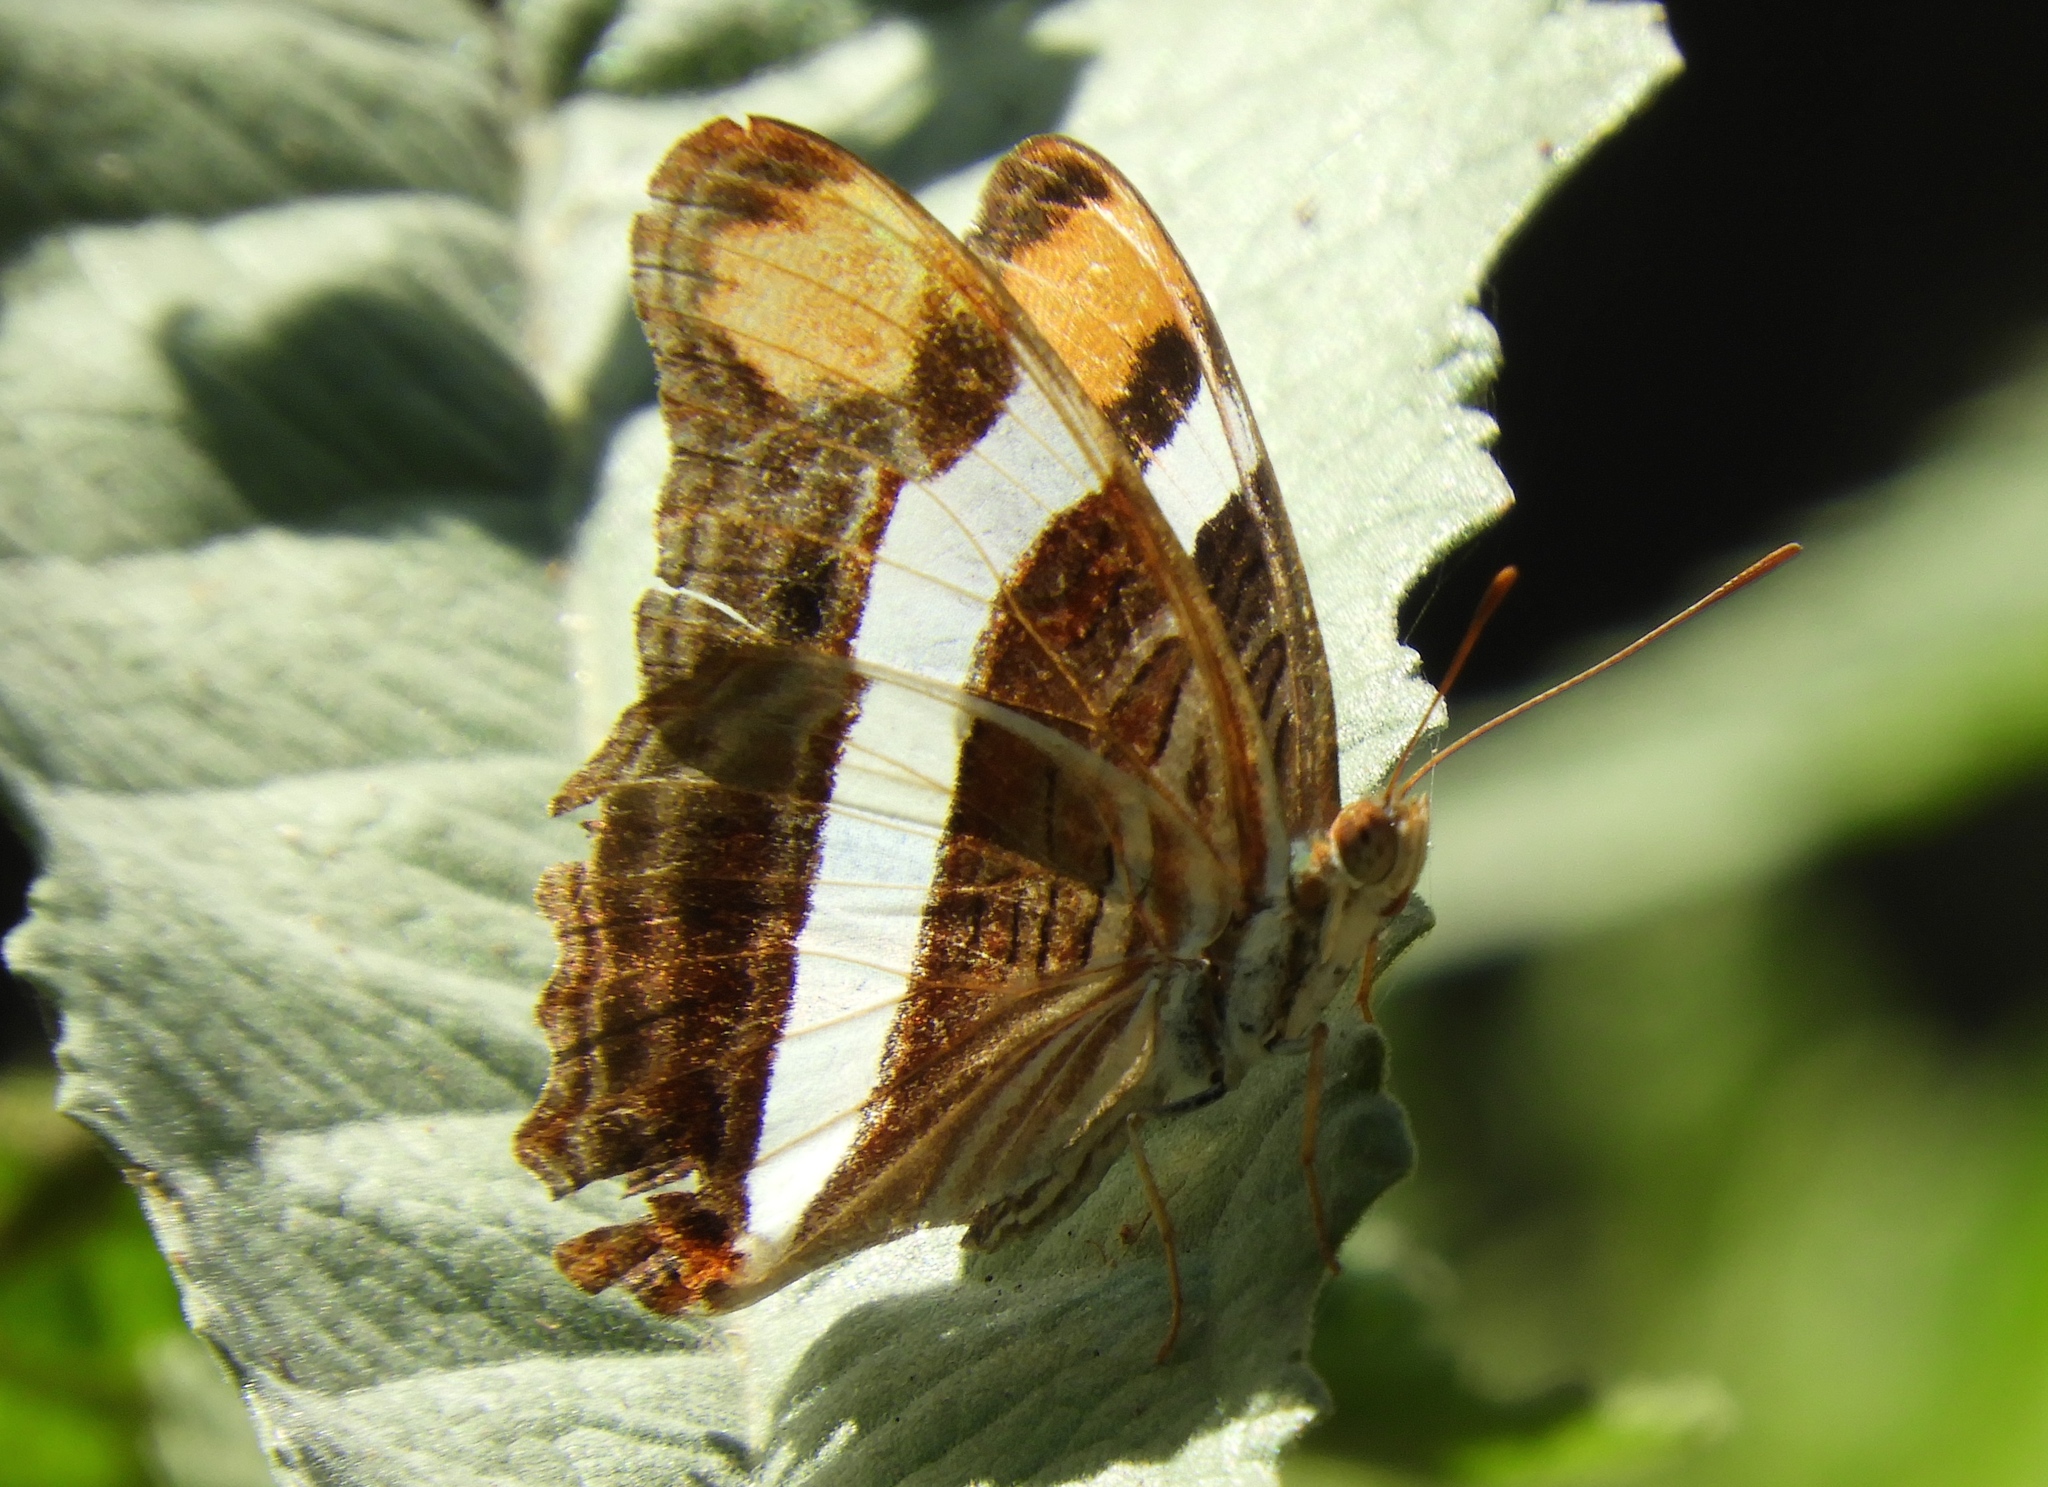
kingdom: Animalia
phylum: Arthropoda
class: Insecta
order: Lepidoptera
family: Nymphalidae
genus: Limenitis
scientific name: Limenitis fessonia
